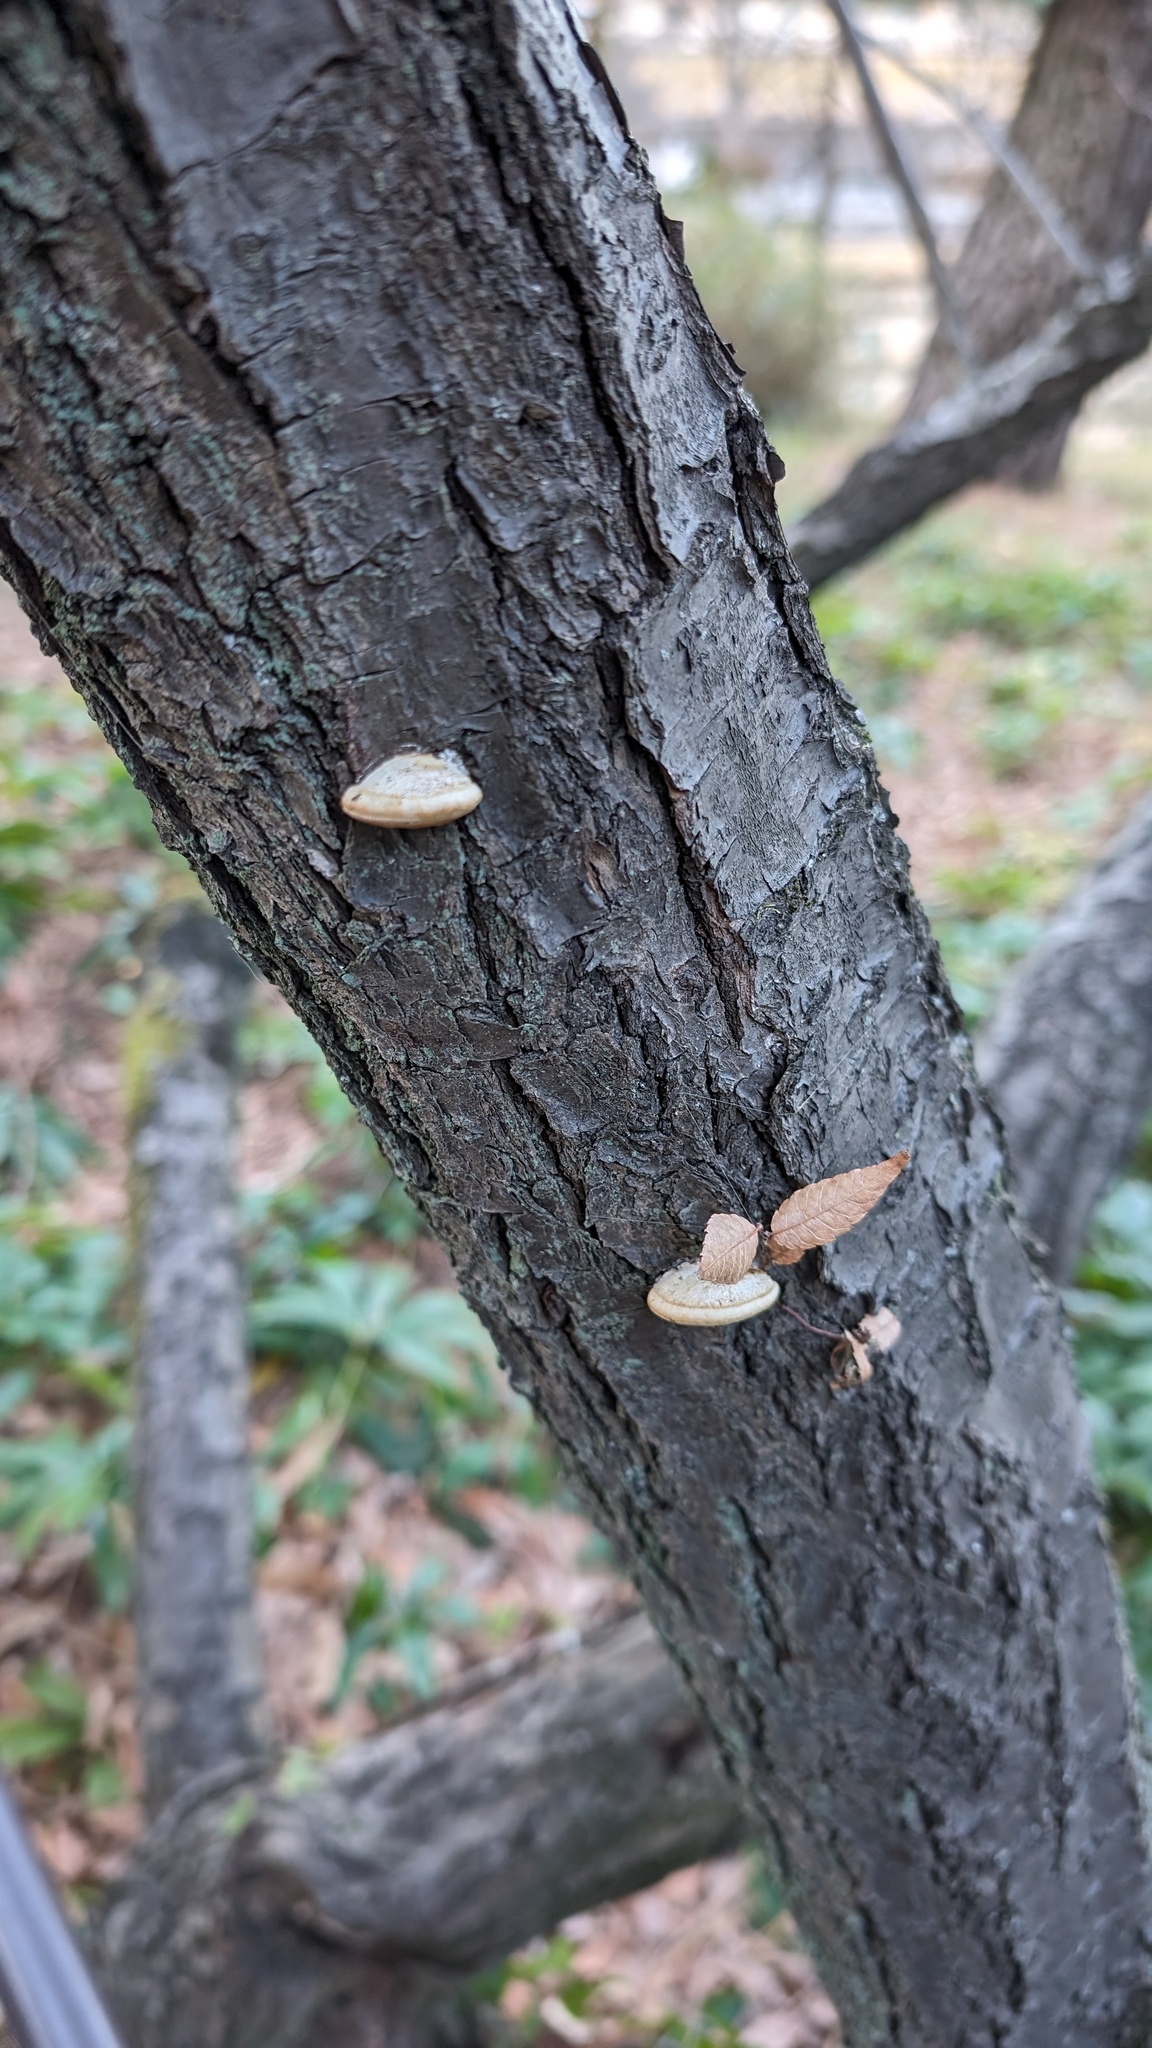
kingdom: Fungi
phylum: Basidiomycota
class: Agaricomycetes
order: Polyporales
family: Polyporaceae
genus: Truncospora
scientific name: Truncospora ochroleuca
